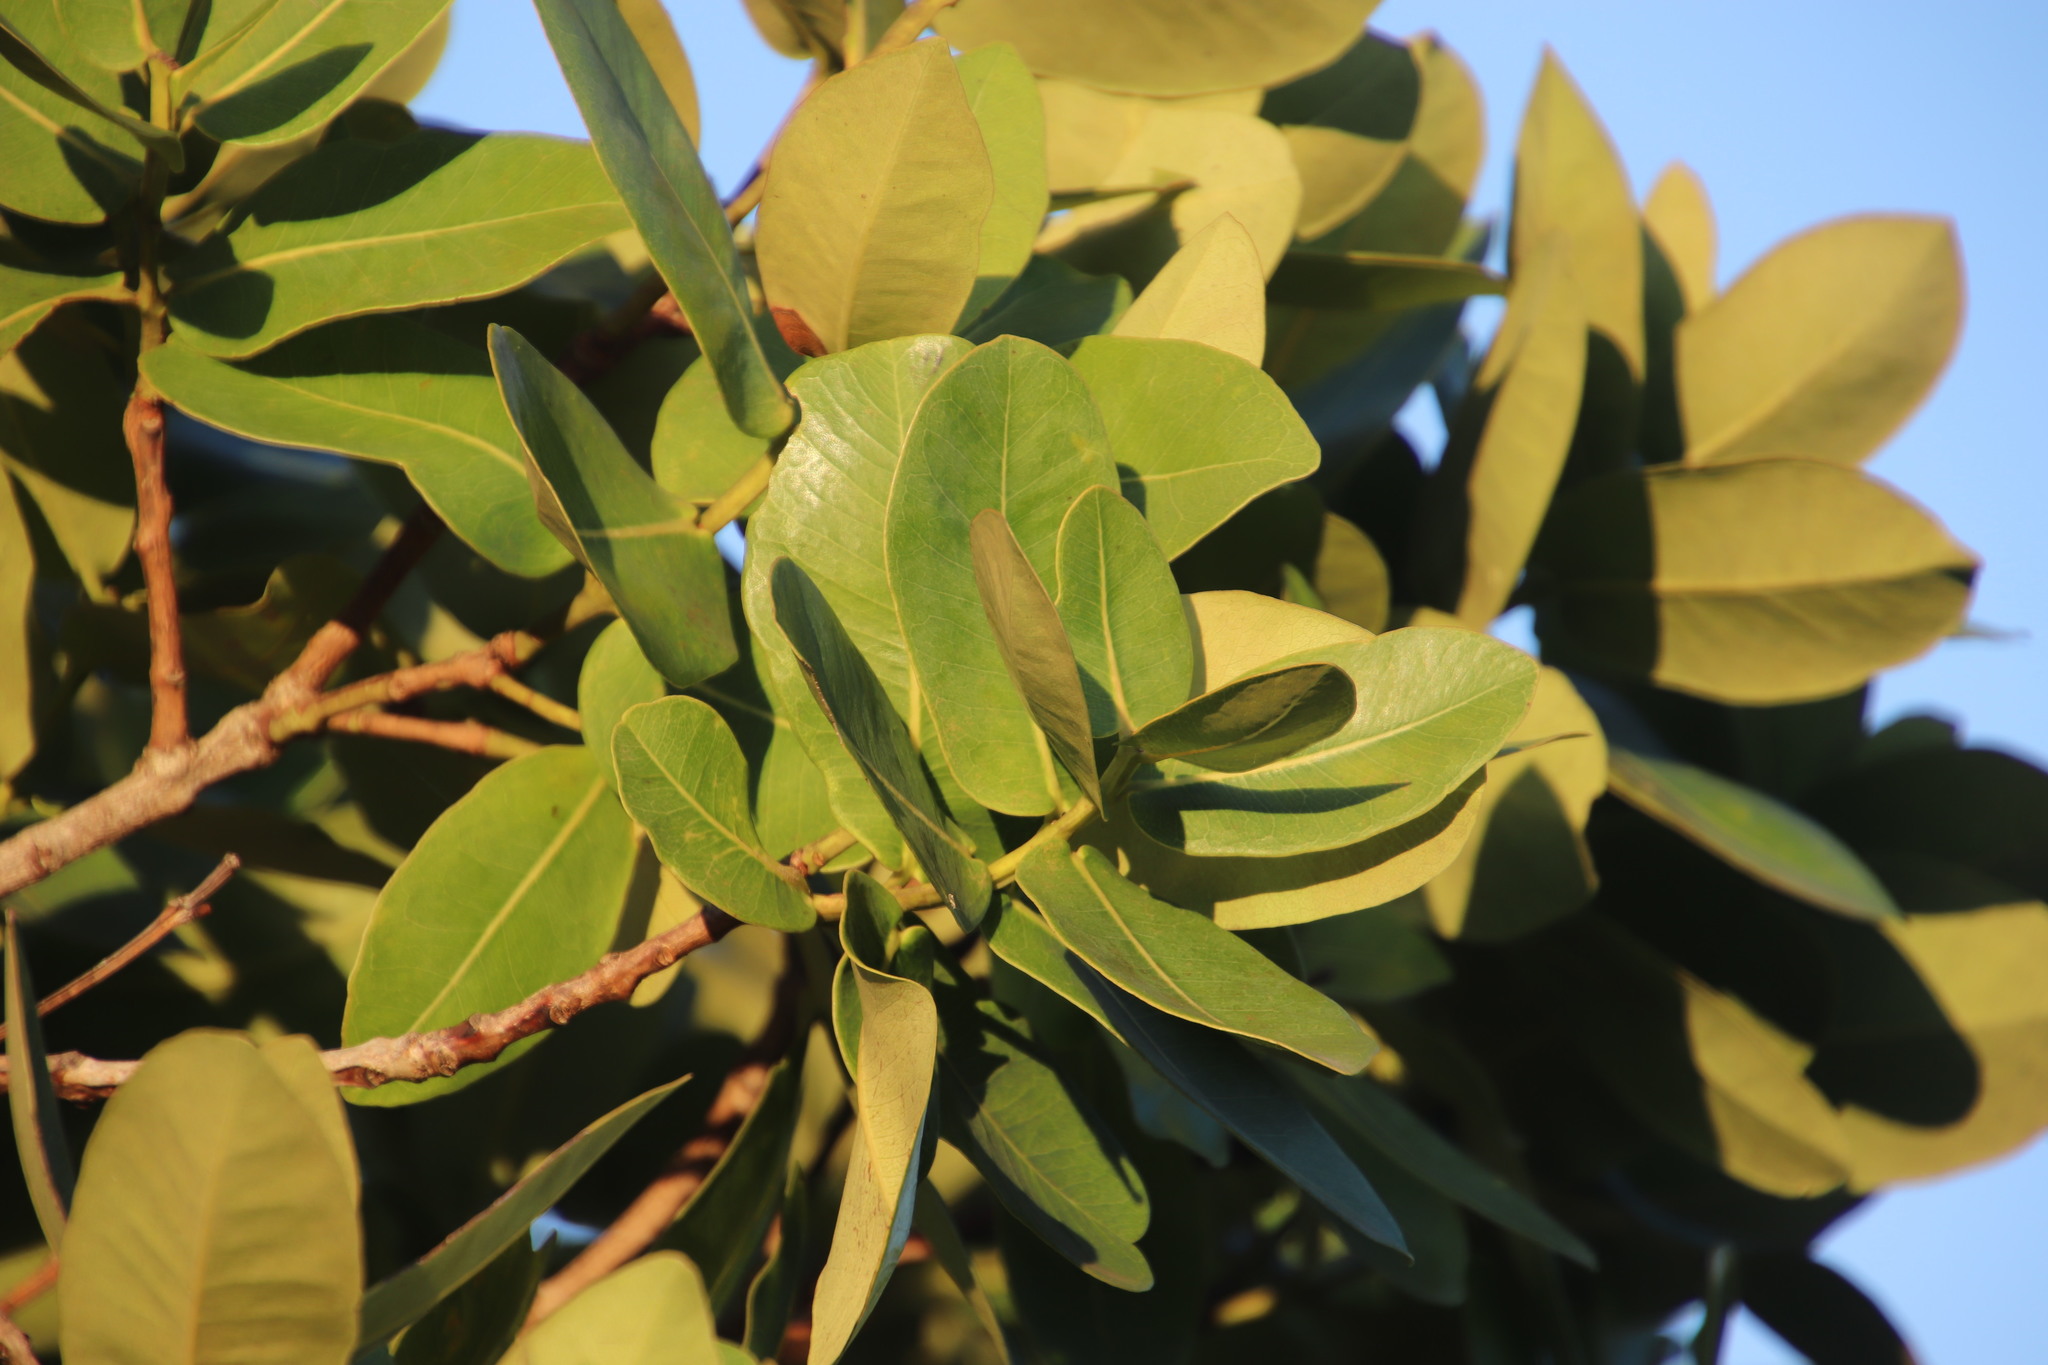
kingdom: Plantae
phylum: Tracheophyta
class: Magnoliopsida
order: Myrtales
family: Myrtaceae
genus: Syzygium
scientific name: Syzygium cordatum
